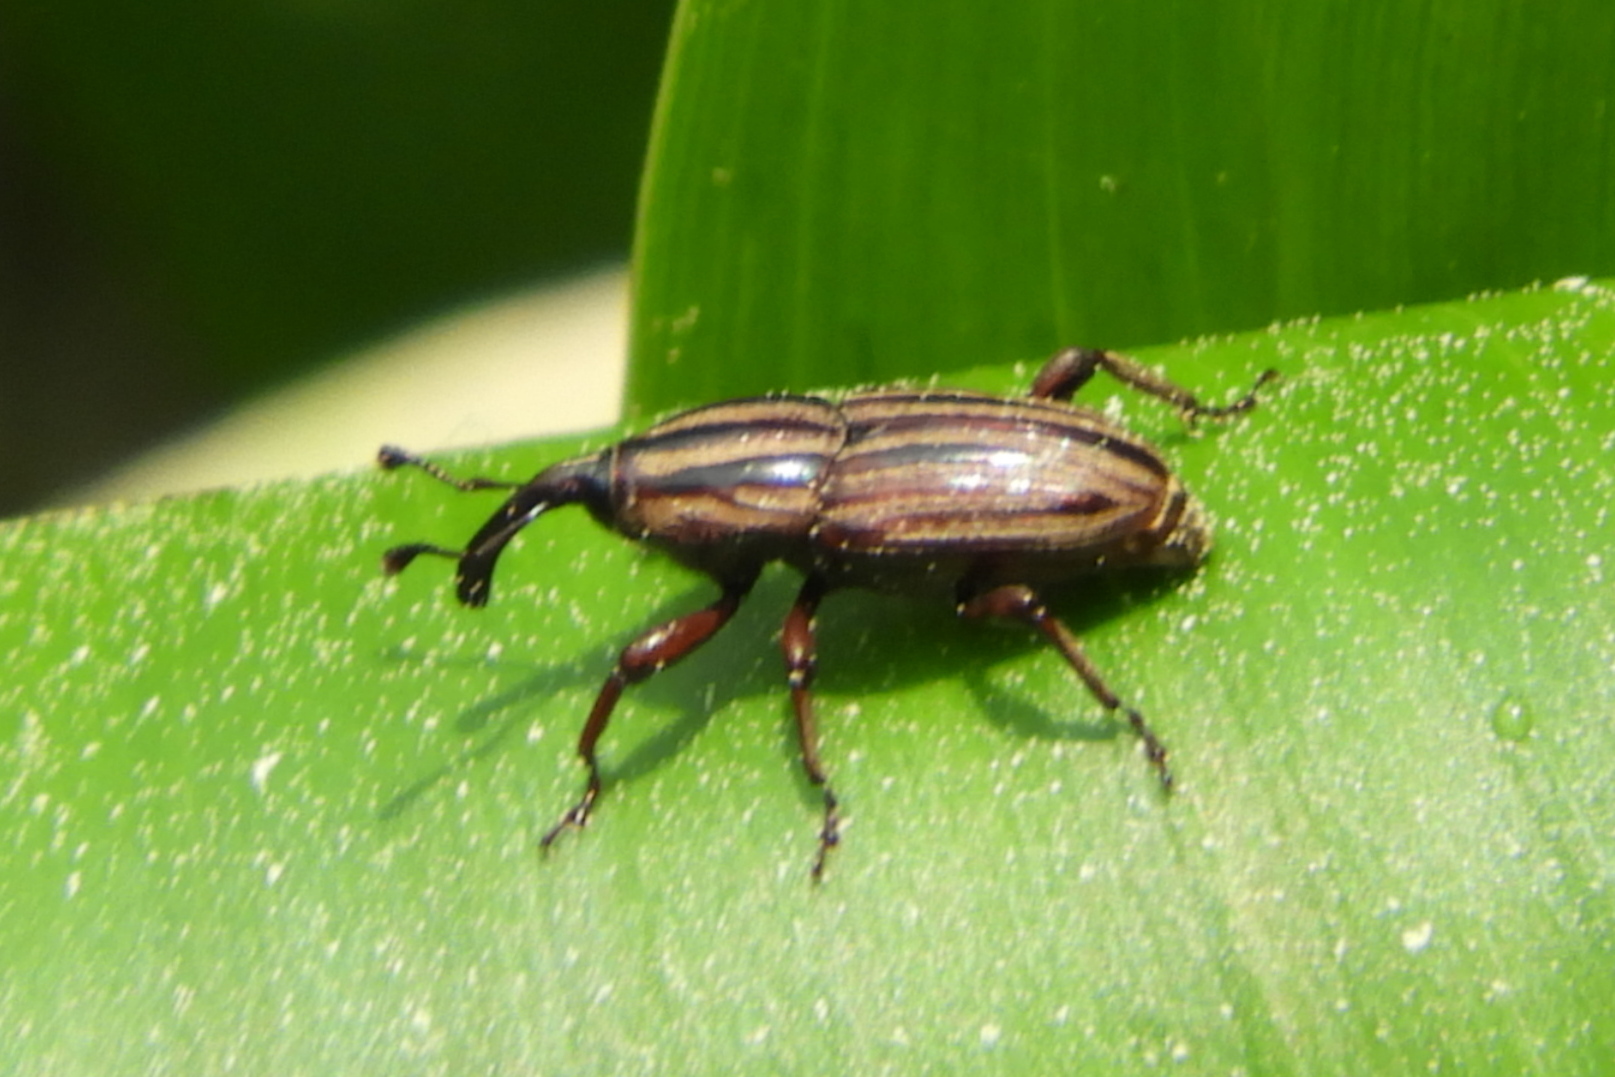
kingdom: Animalia
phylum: Arthropoda
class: Insecta
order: Coleoptera
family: Dryophthoridae
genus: Sphenophorus
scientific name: Sphenophorus villosiventris
